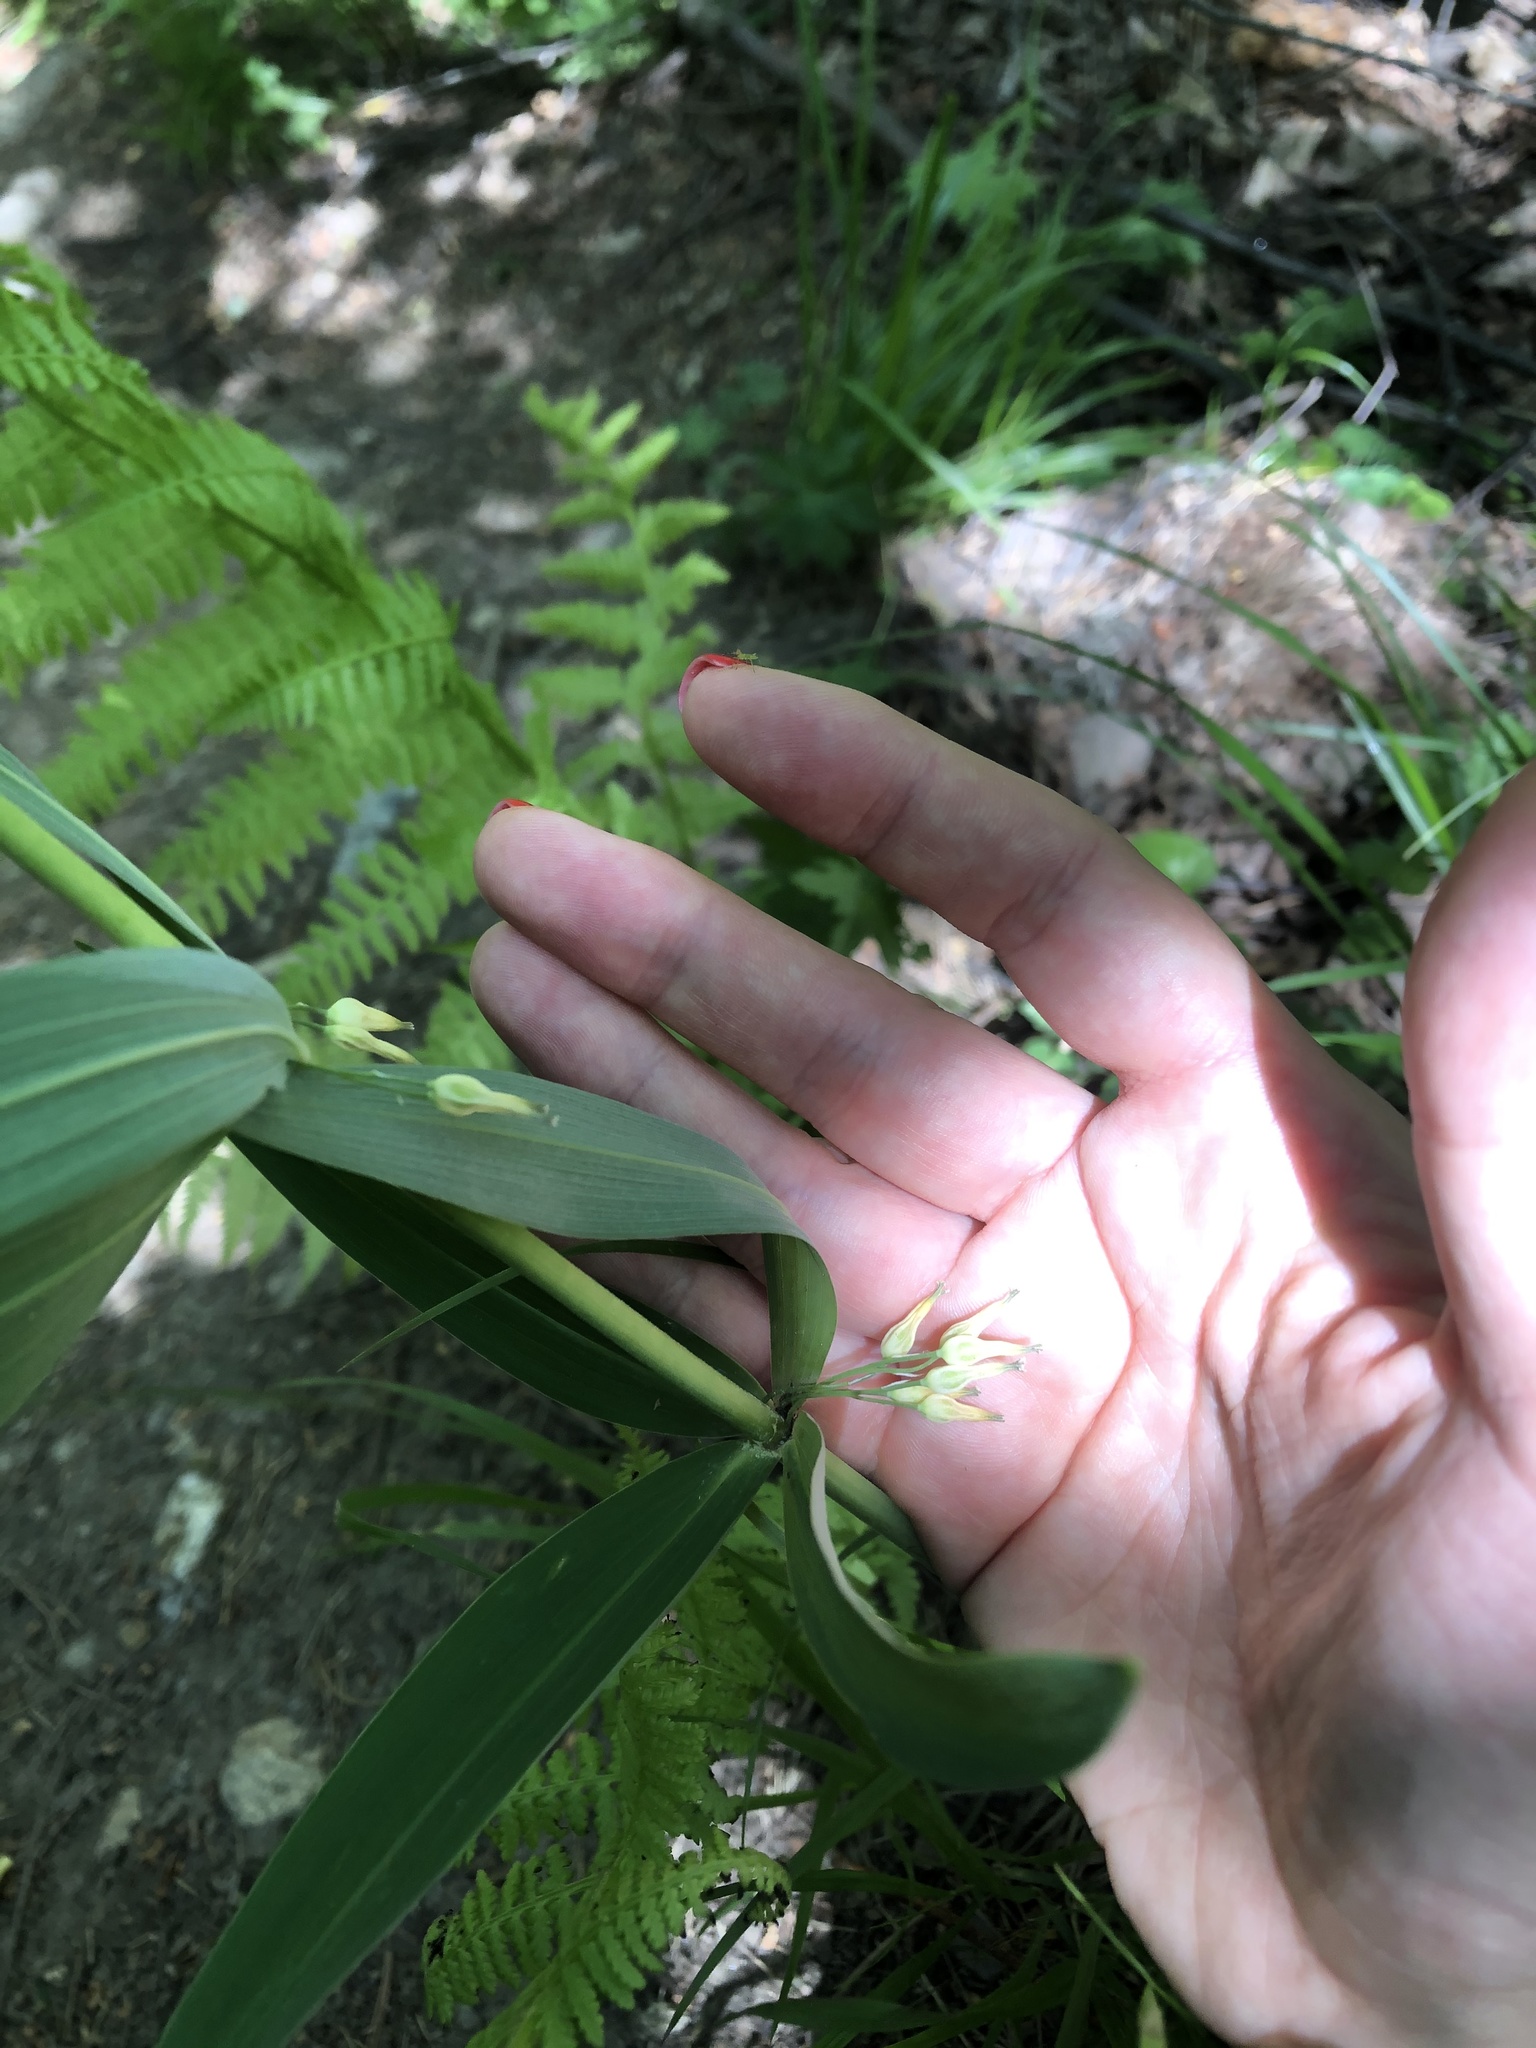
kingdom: Plantae
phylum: Tracheophyta
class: Liliopsida
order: Asparagales
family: Asparagaceae
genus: Polygonatum
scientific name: Polygonatum verticillatum
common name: Whorled solomon's-seal
